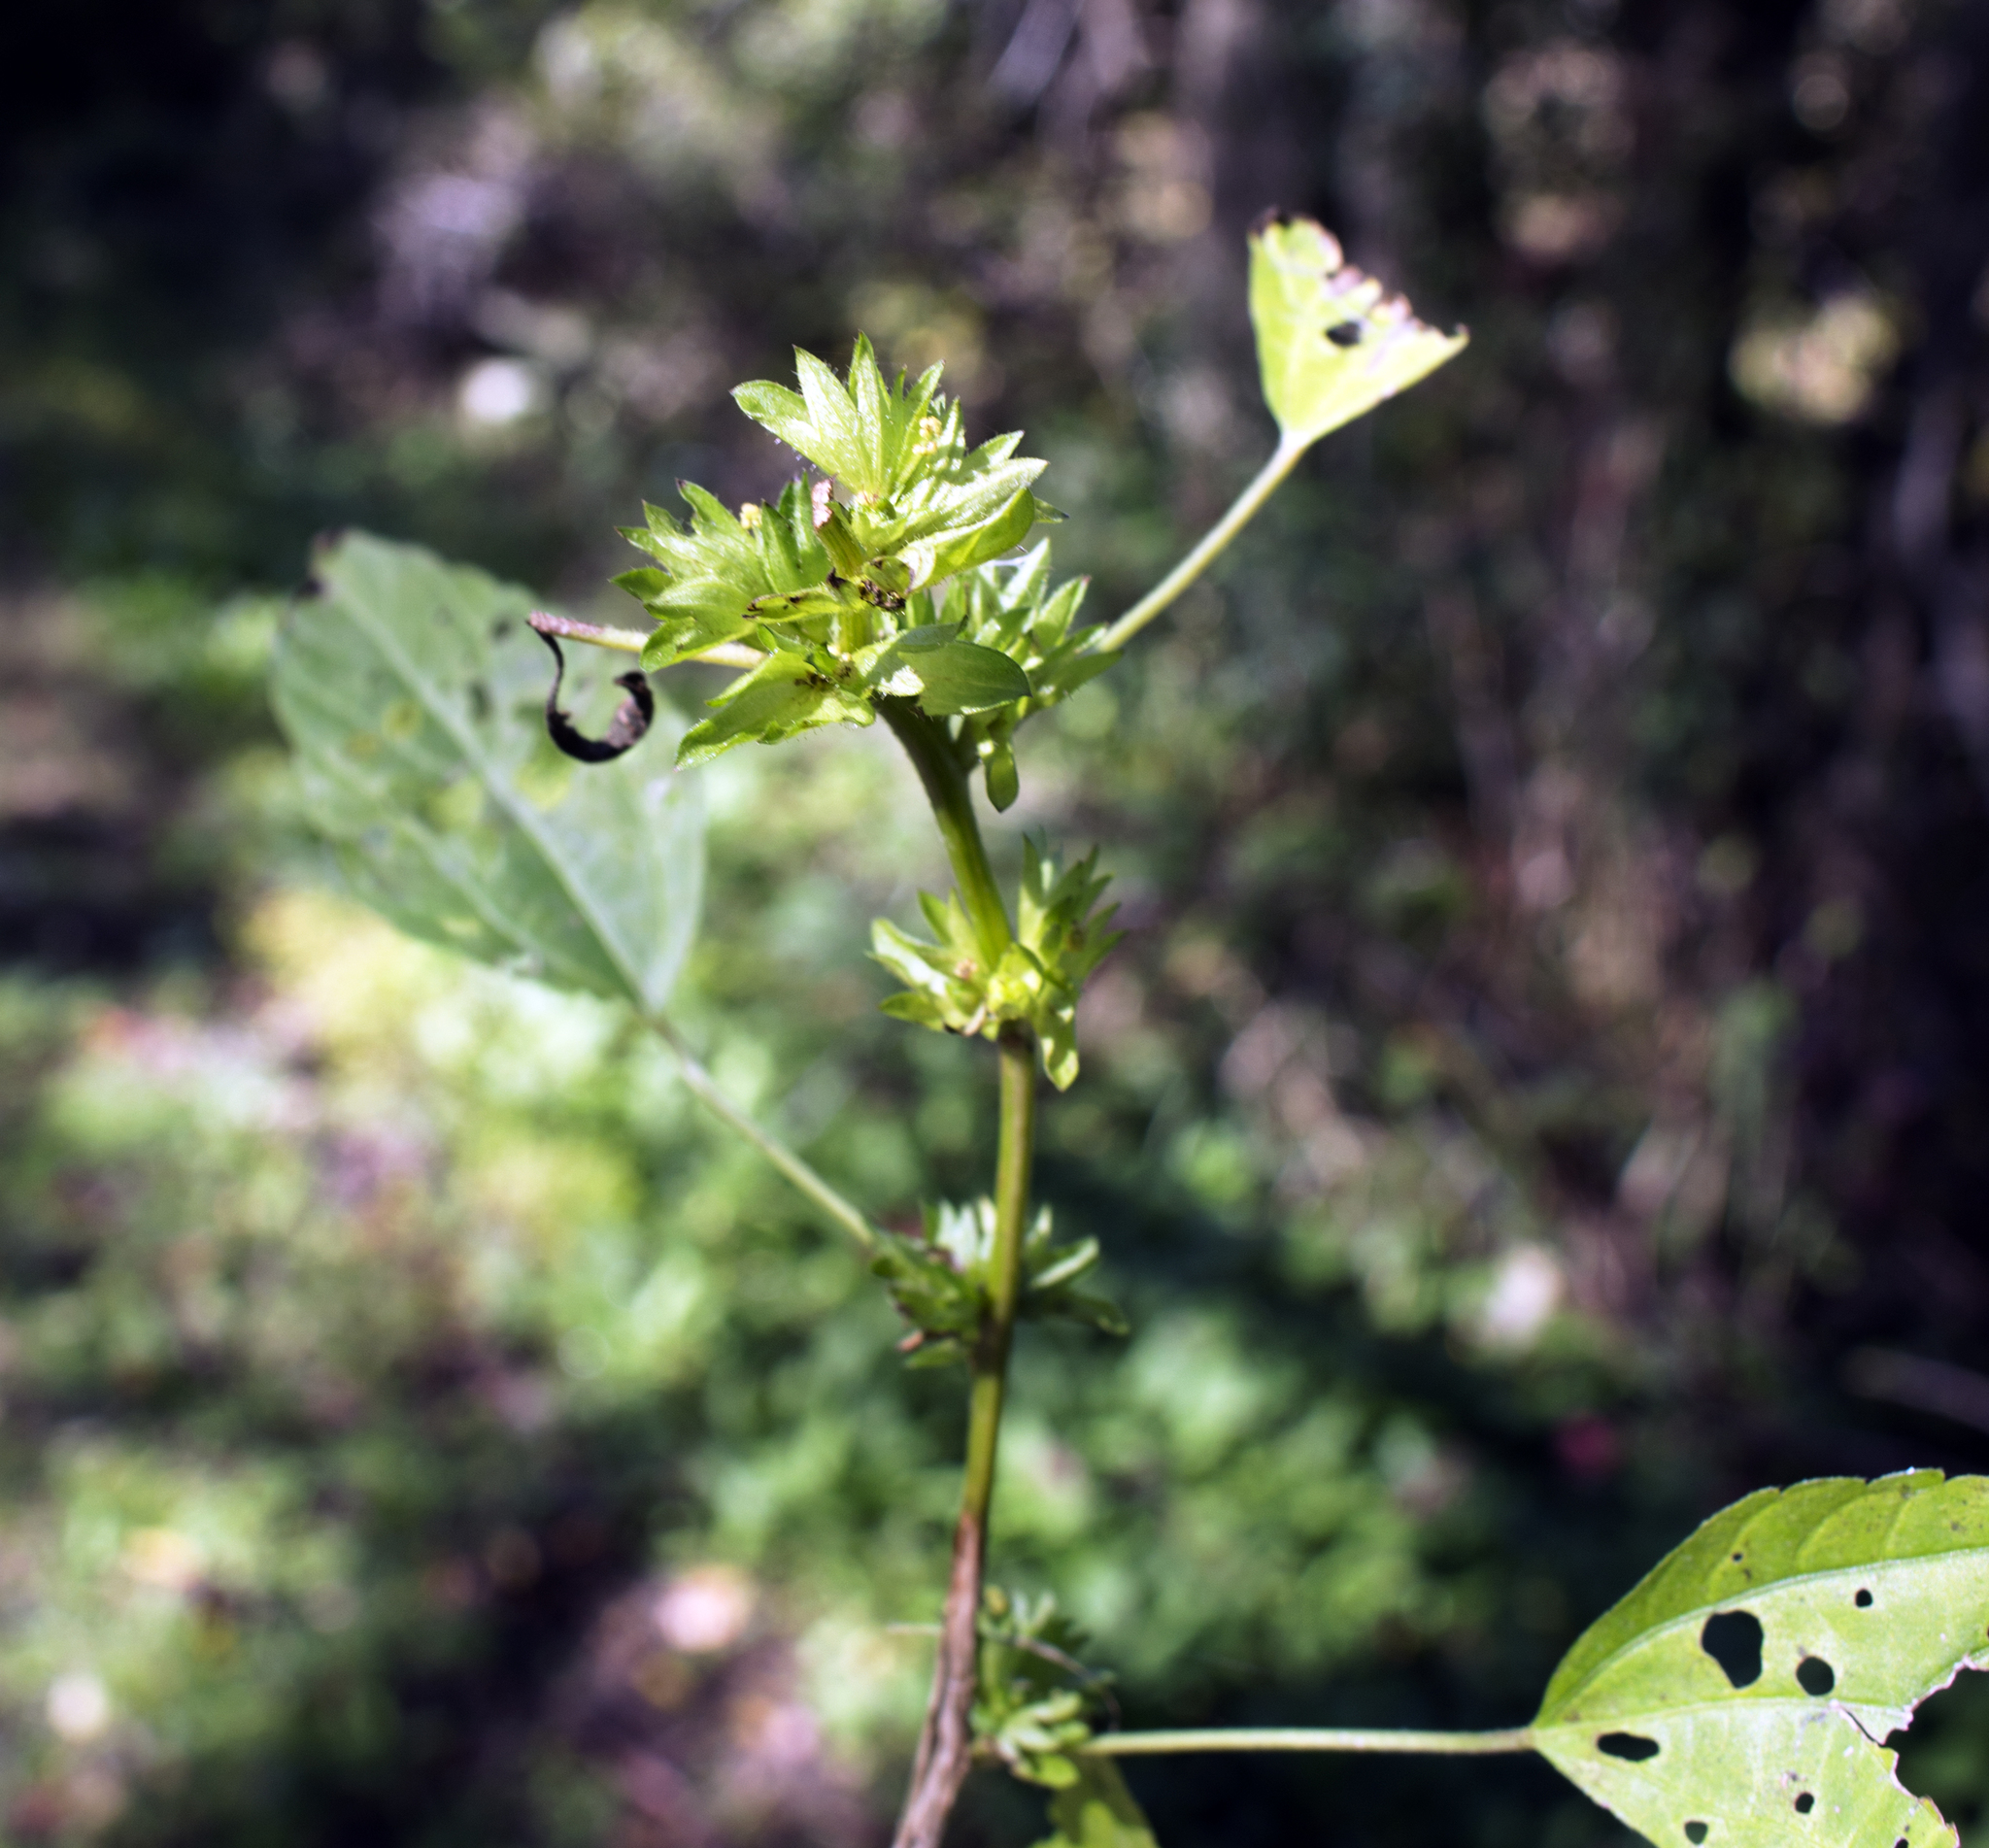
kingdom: Plantae
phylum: Tracheophyta
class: Magnoliopsida
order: Malpighiales
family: Euphorbiaceae
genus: Acalypha
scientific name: Acalypha rhomboidea
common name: Rhombic copperleaf
